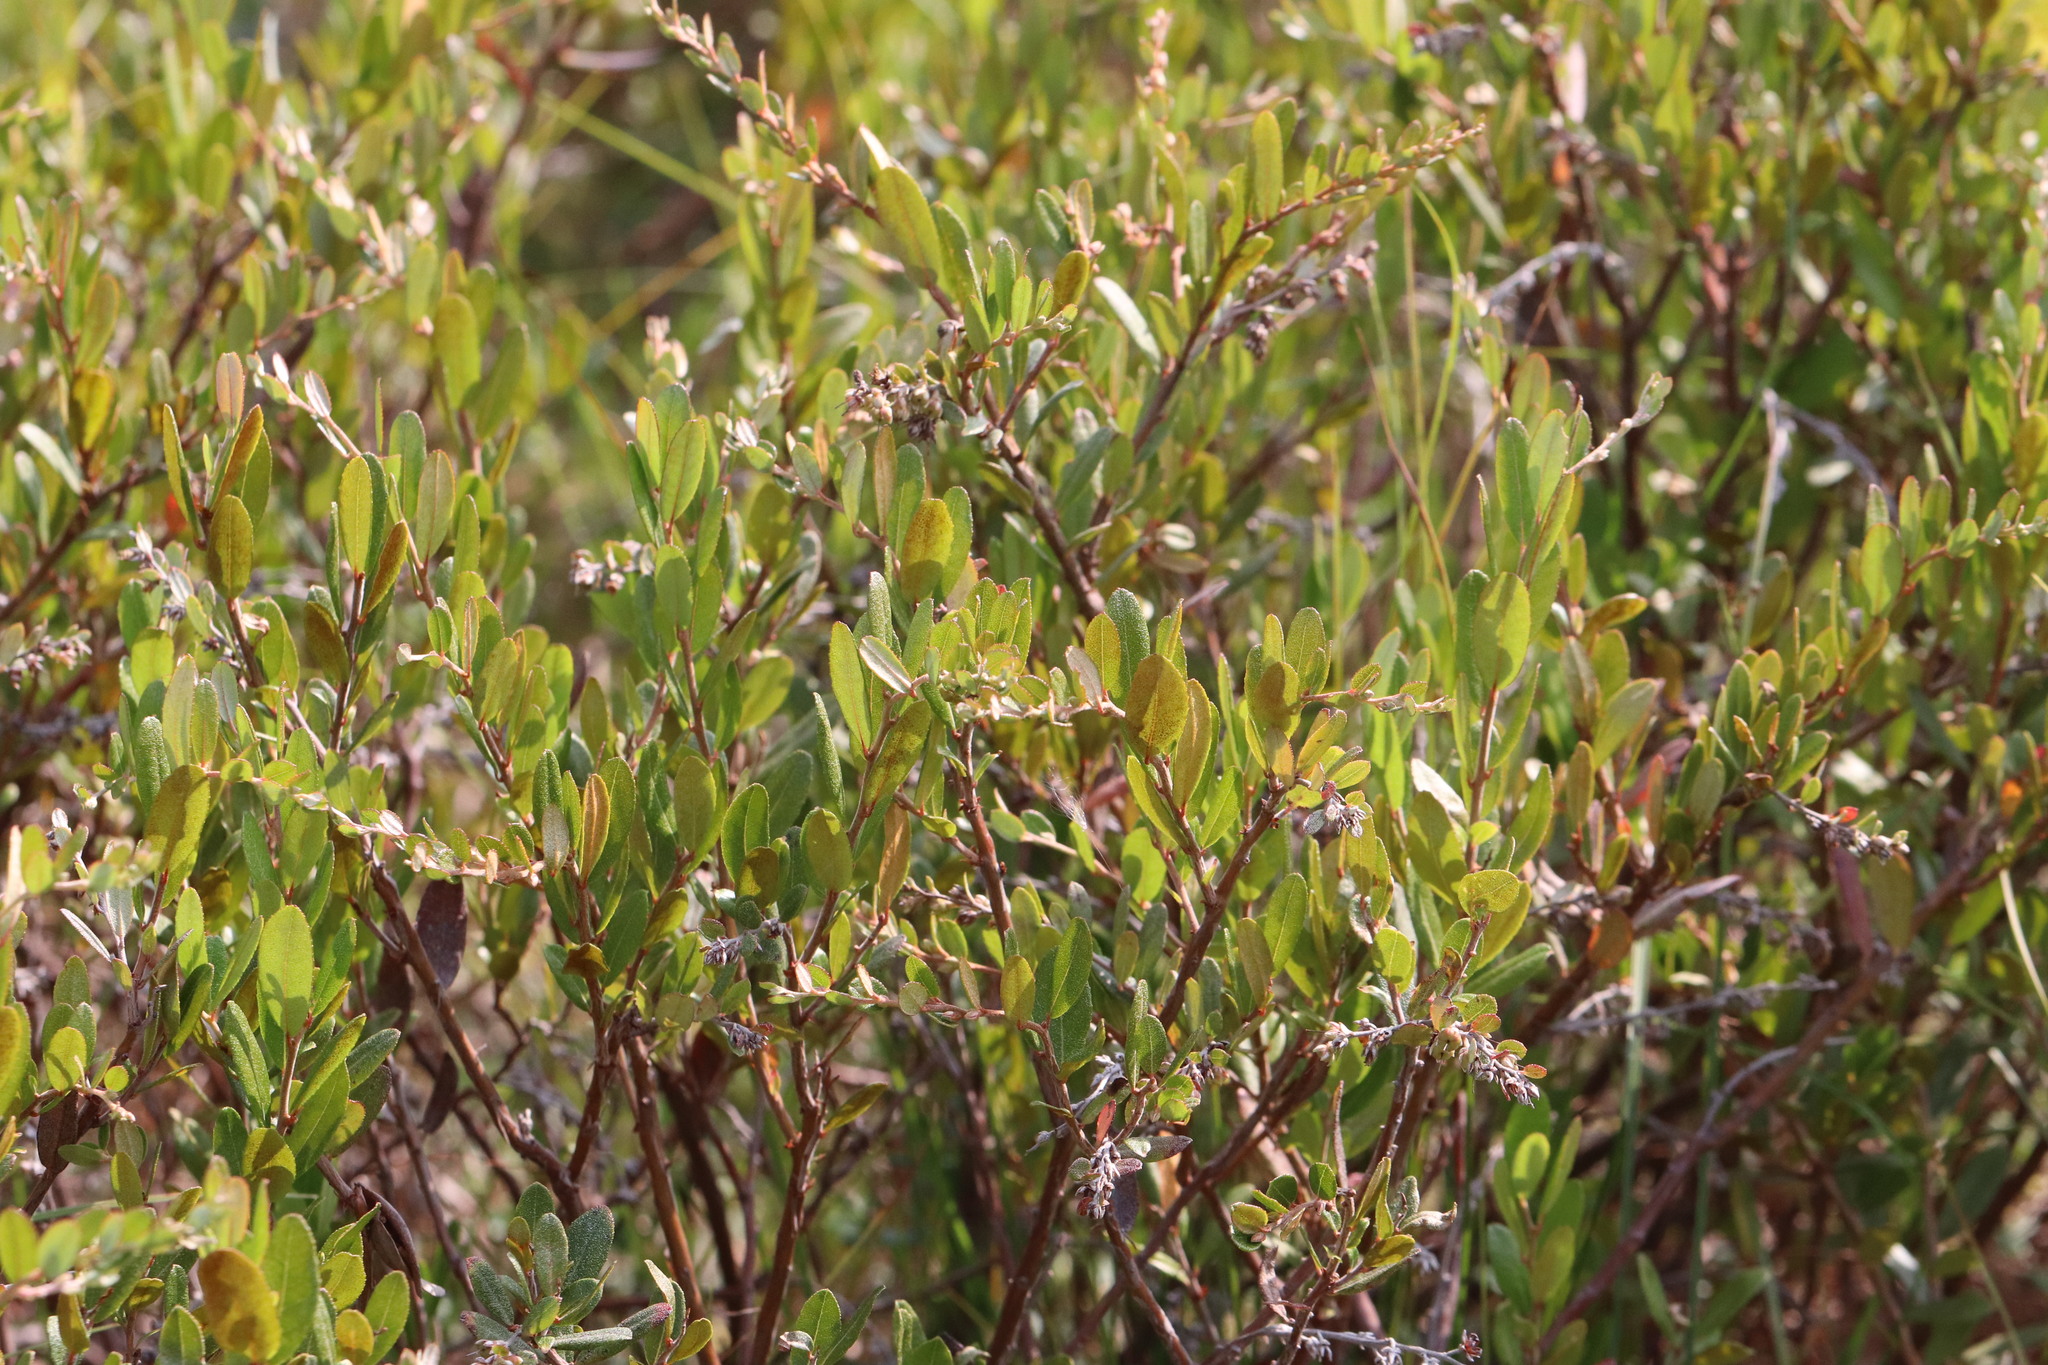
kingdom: Plantae
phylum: Tracheophyta
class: Magnoliopsida
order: Ericales
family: Ericaceae
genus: Chamaedaphne
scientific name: Chamaedaphne calyculata
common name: Leatherleaf
